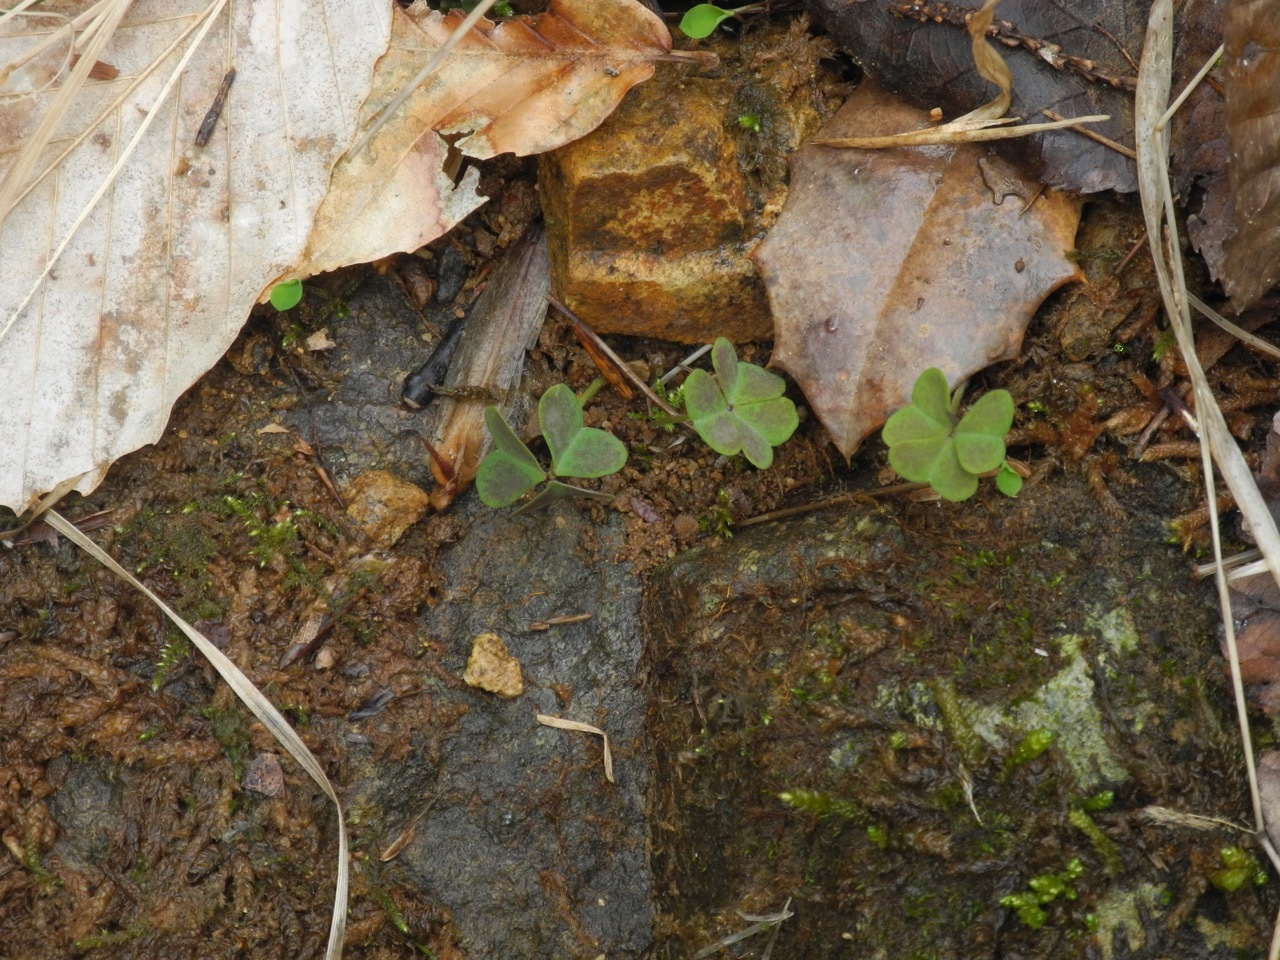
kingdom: Plantae
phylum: Tracheophyta
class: Magnoliopsida
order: Oxalidales
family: Oxalidaceae
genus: Oxalis
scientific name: Oxalis violacea
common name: Violet wood-sorrel
